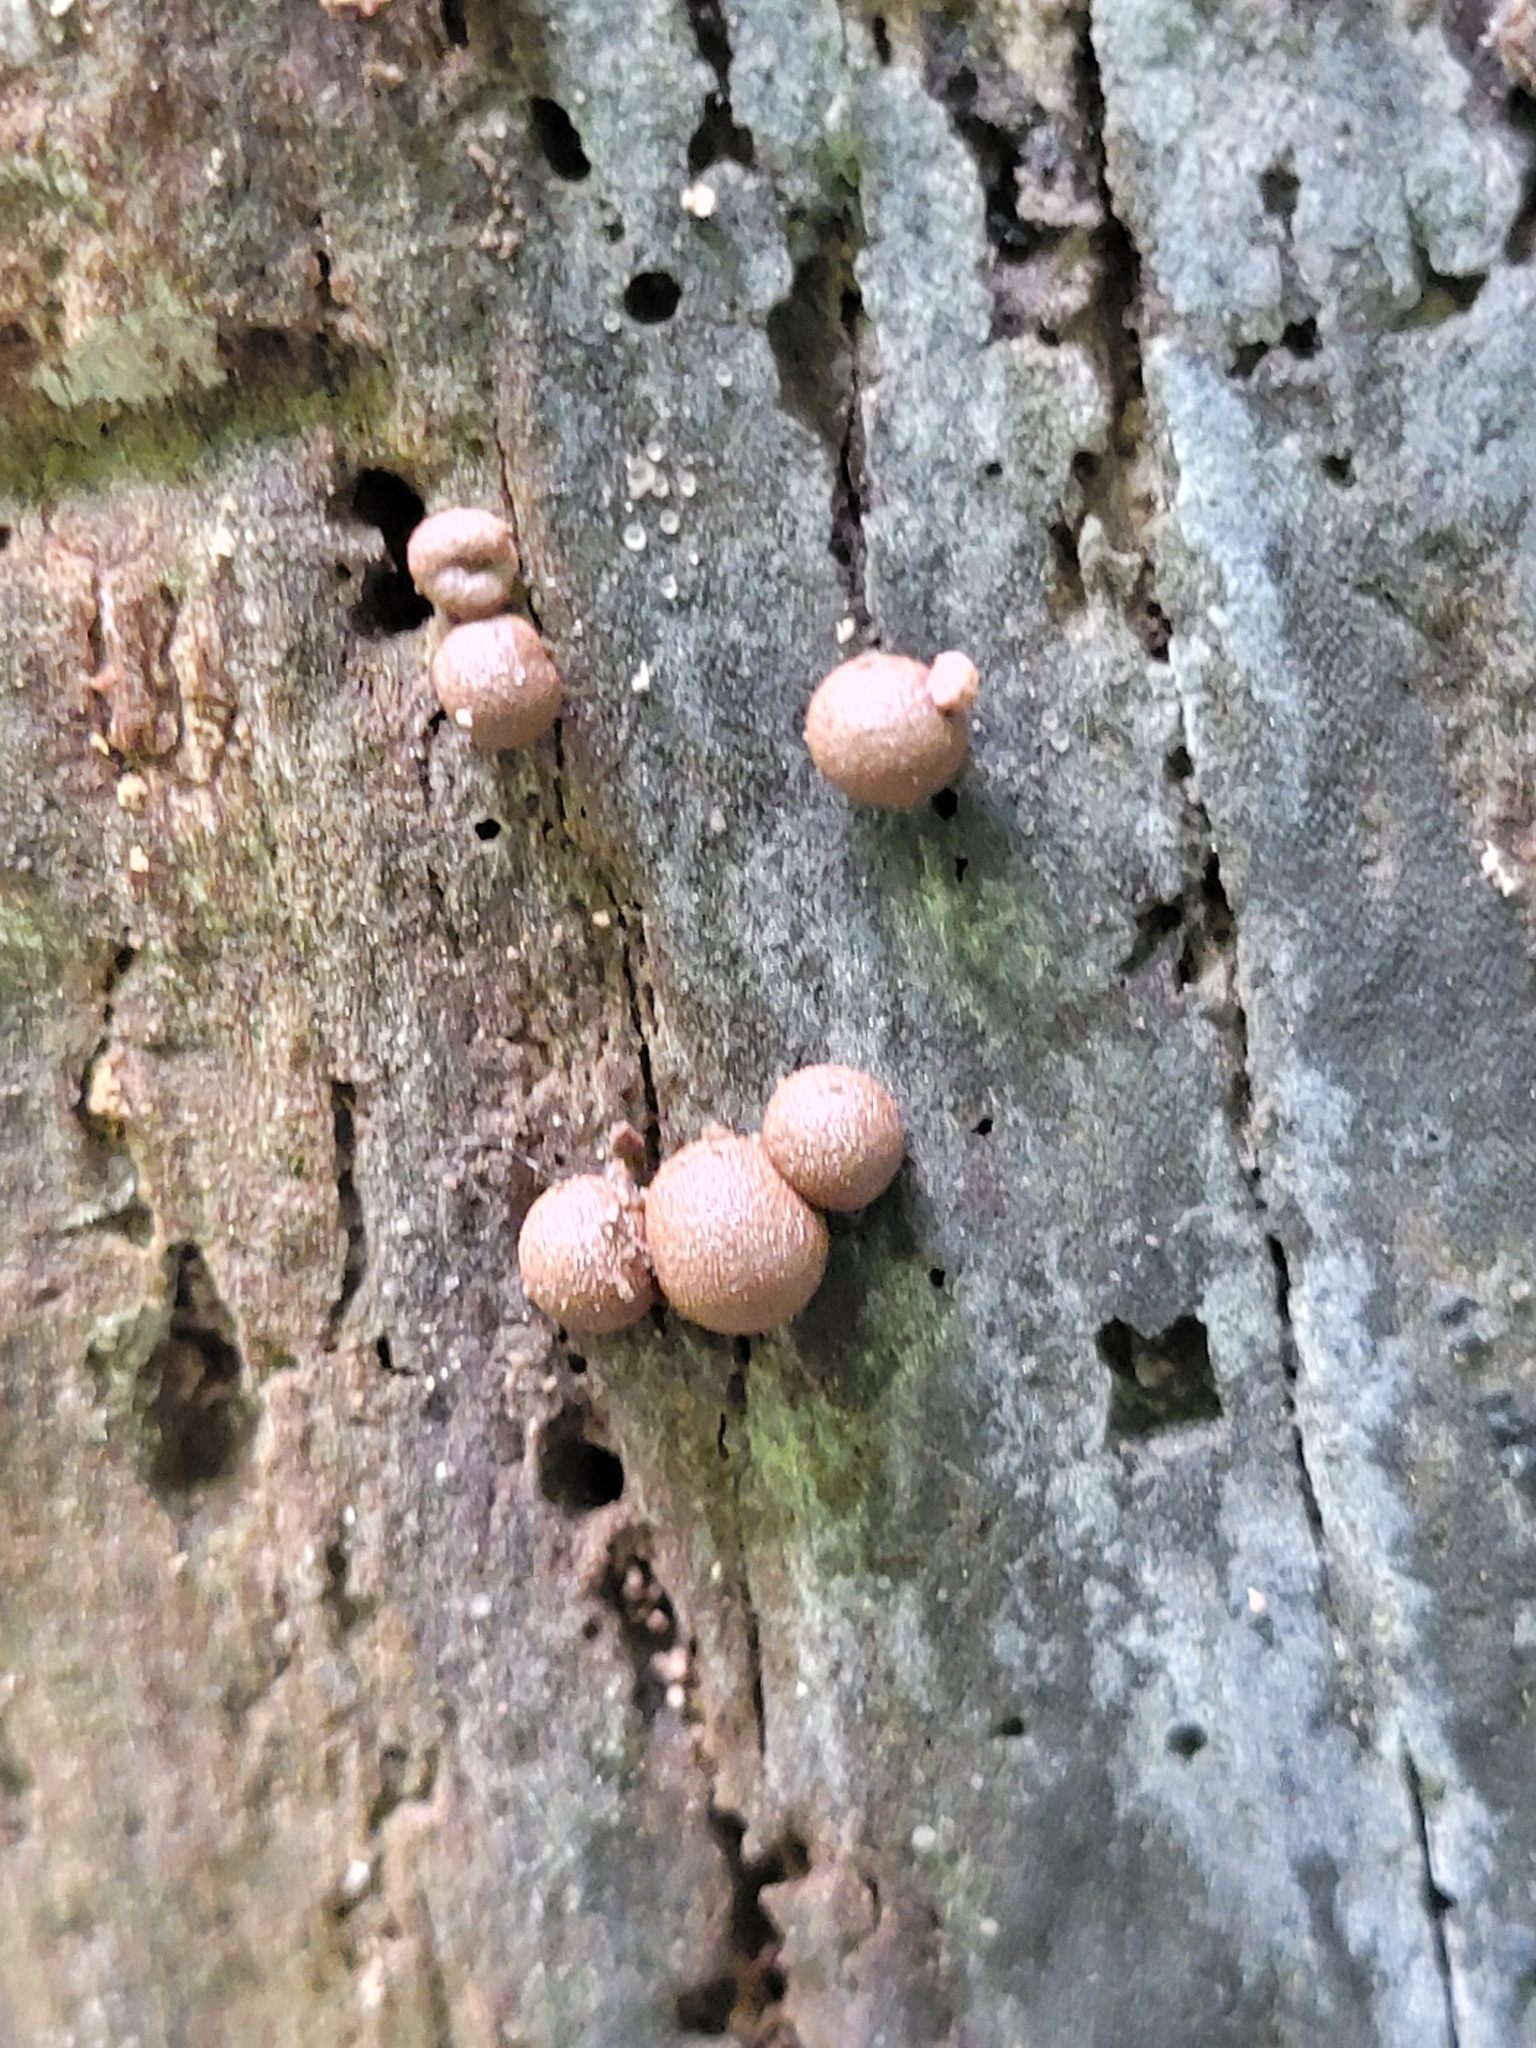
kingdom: Protozoa
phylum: Mycetozoa
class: Myxomycetes
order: Cribrariales
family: Tubiferaceae
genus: Lycogala
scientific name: Lycogala epidendrum
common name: Wolf's milk
